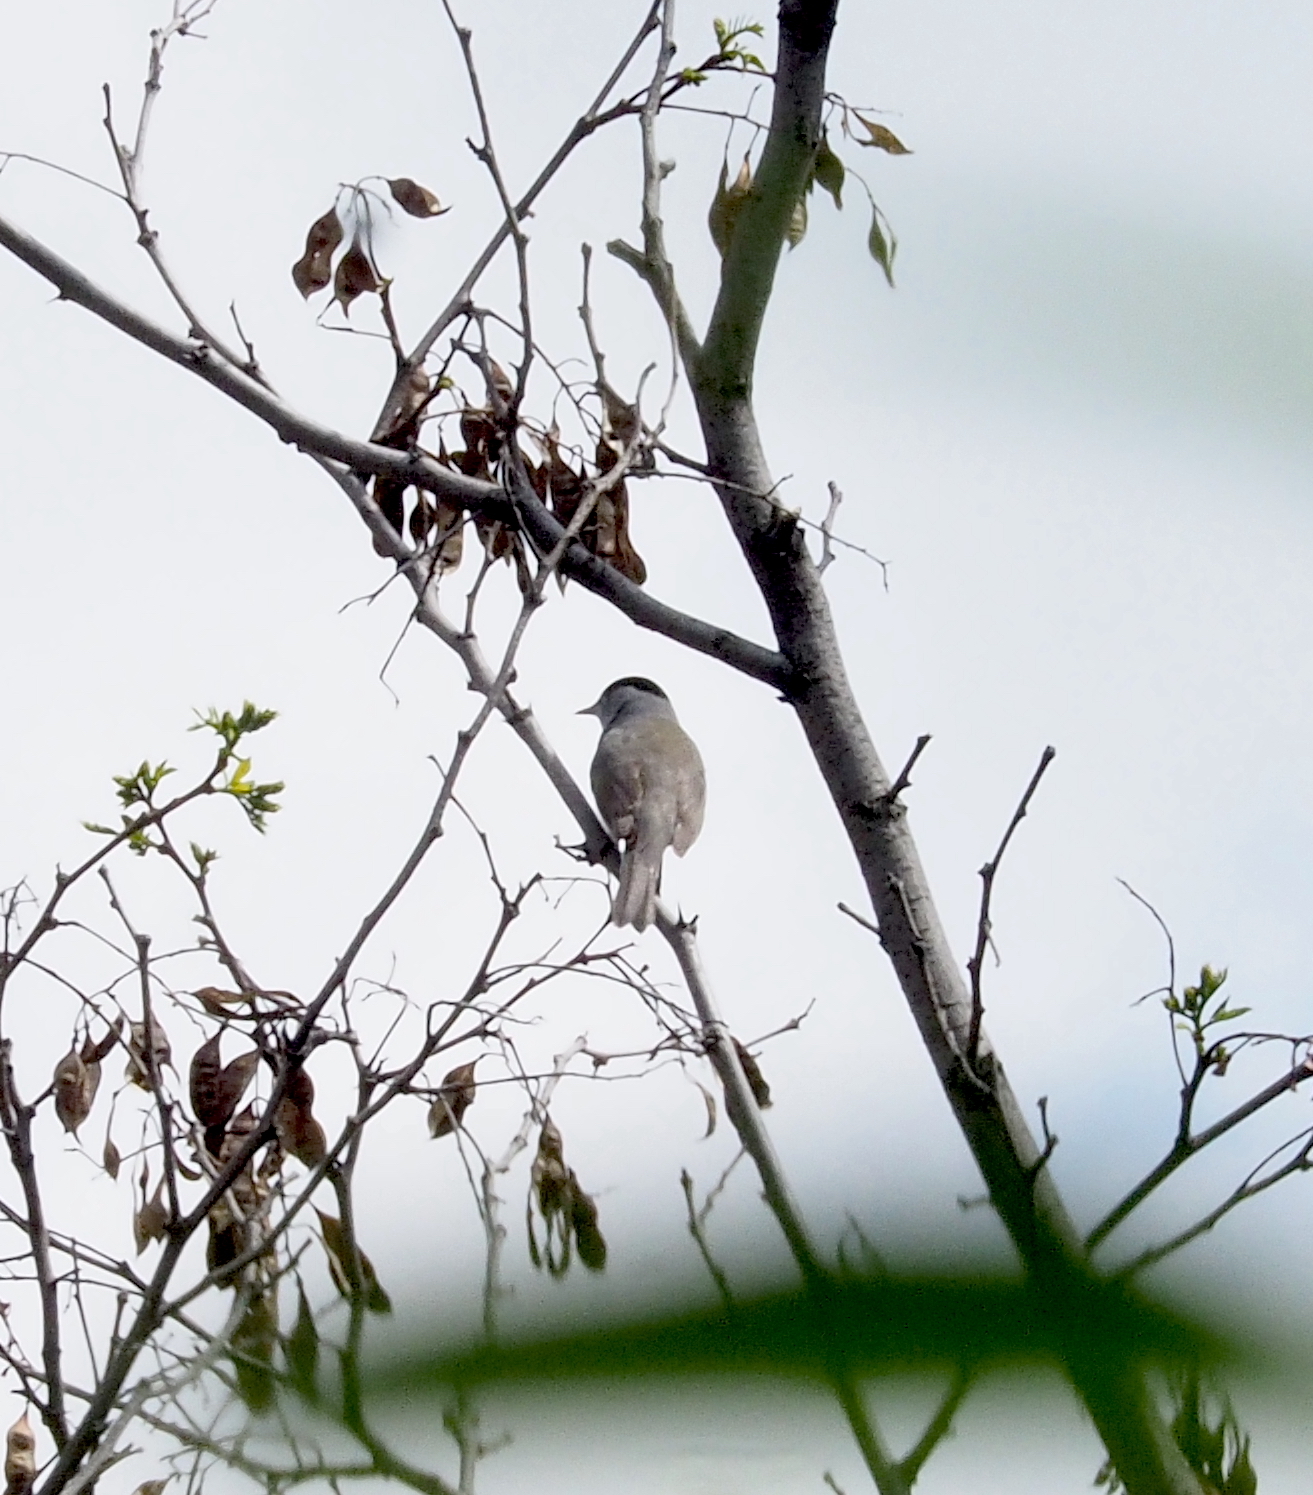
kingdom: Animalia
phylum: Chordata
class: Aves
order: Passeriformes
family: Sylviidae
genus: Sylvia
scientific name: Sylvia atricapilla
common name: Eurasian blackcap
